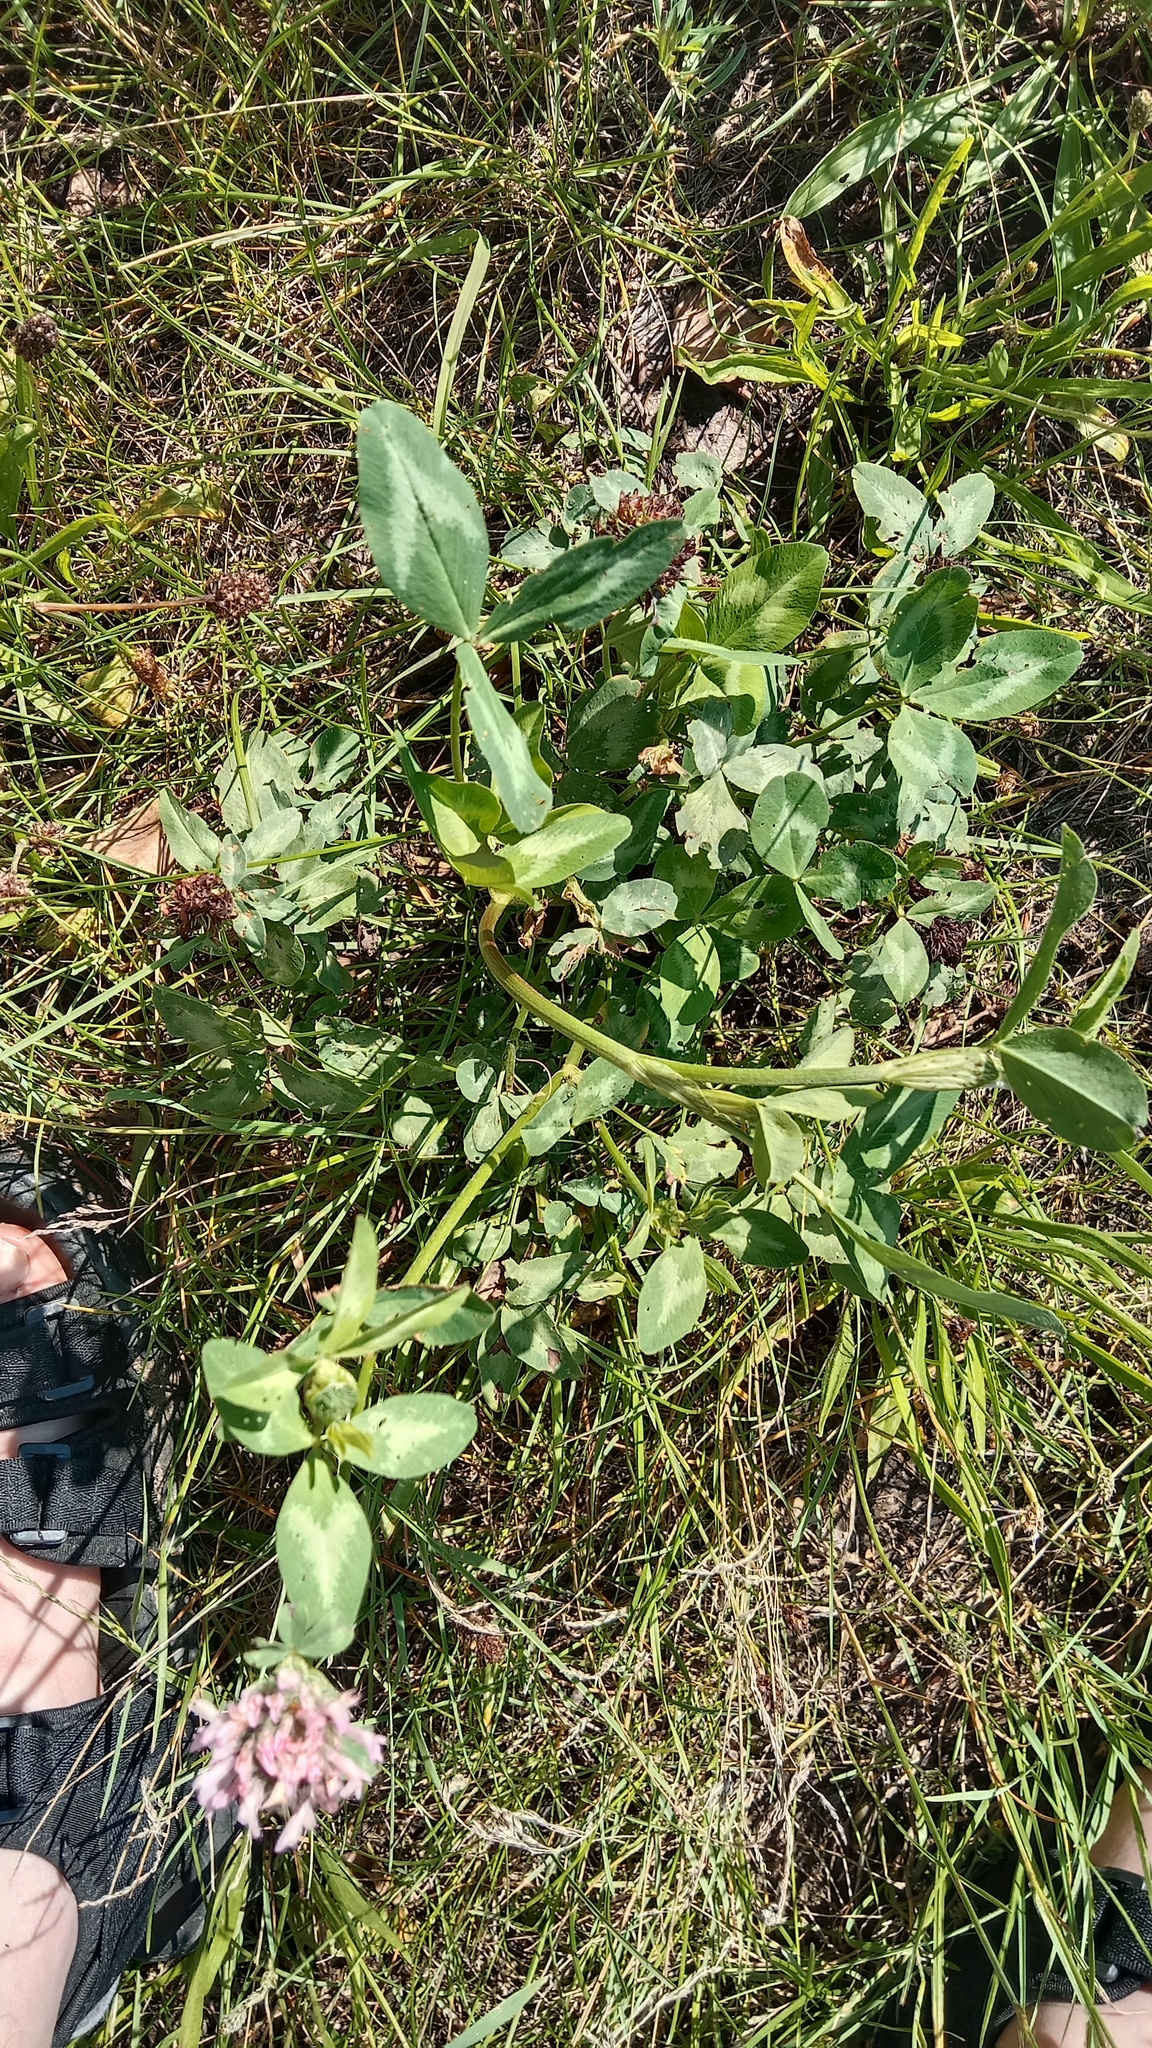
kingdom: Plantae
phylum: Tracheophyta
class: Magnoliopsida
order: Fabales
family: Fabaceae
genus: Trifolium
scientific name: Trifolium pratense
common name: Red clover
